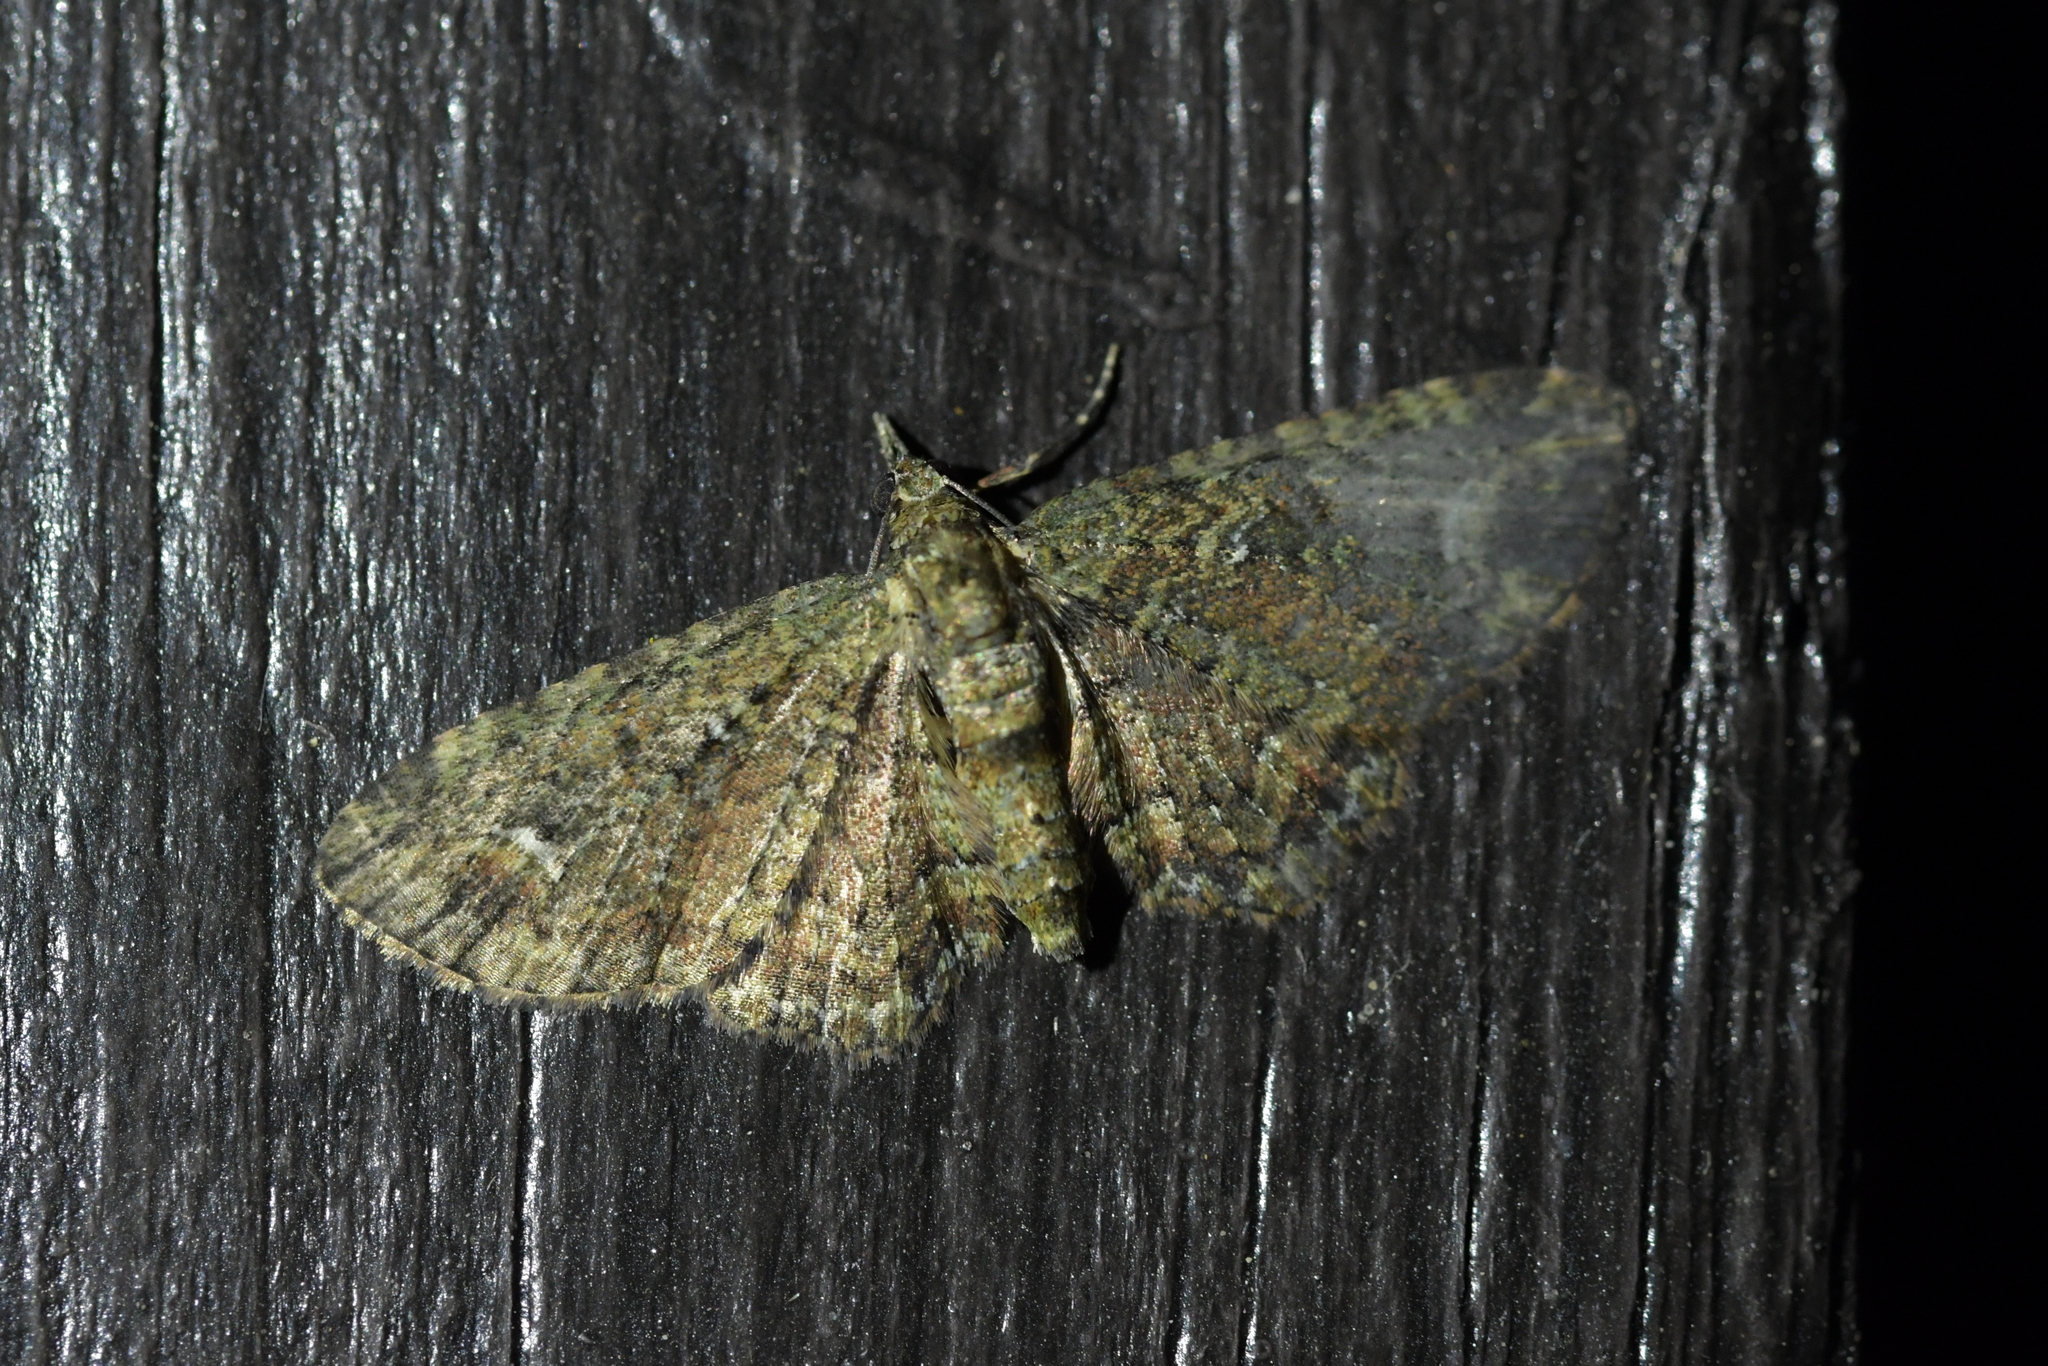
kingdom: Animalia
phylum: Arthropoda
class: Insecta
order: Lepidoptera
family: Geometridae
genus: Pasiphilodes
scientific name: Pasiphilodes testulata
